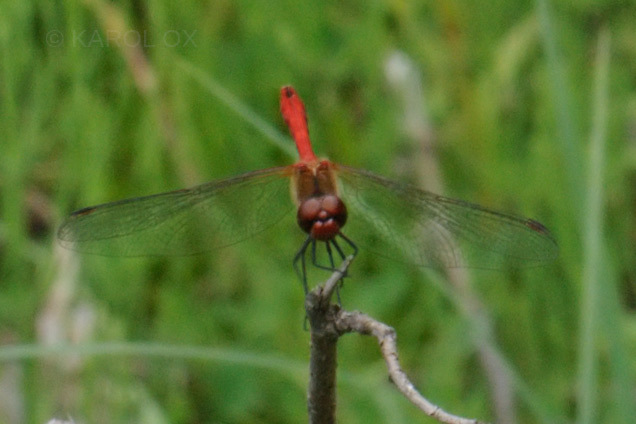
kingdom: Animalia
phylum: Arthropoda
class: Insecta
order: Odonata
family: Libellulidae
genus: Sympetrum
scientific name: Sympetrum sanguineum
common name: Ruddy darter
